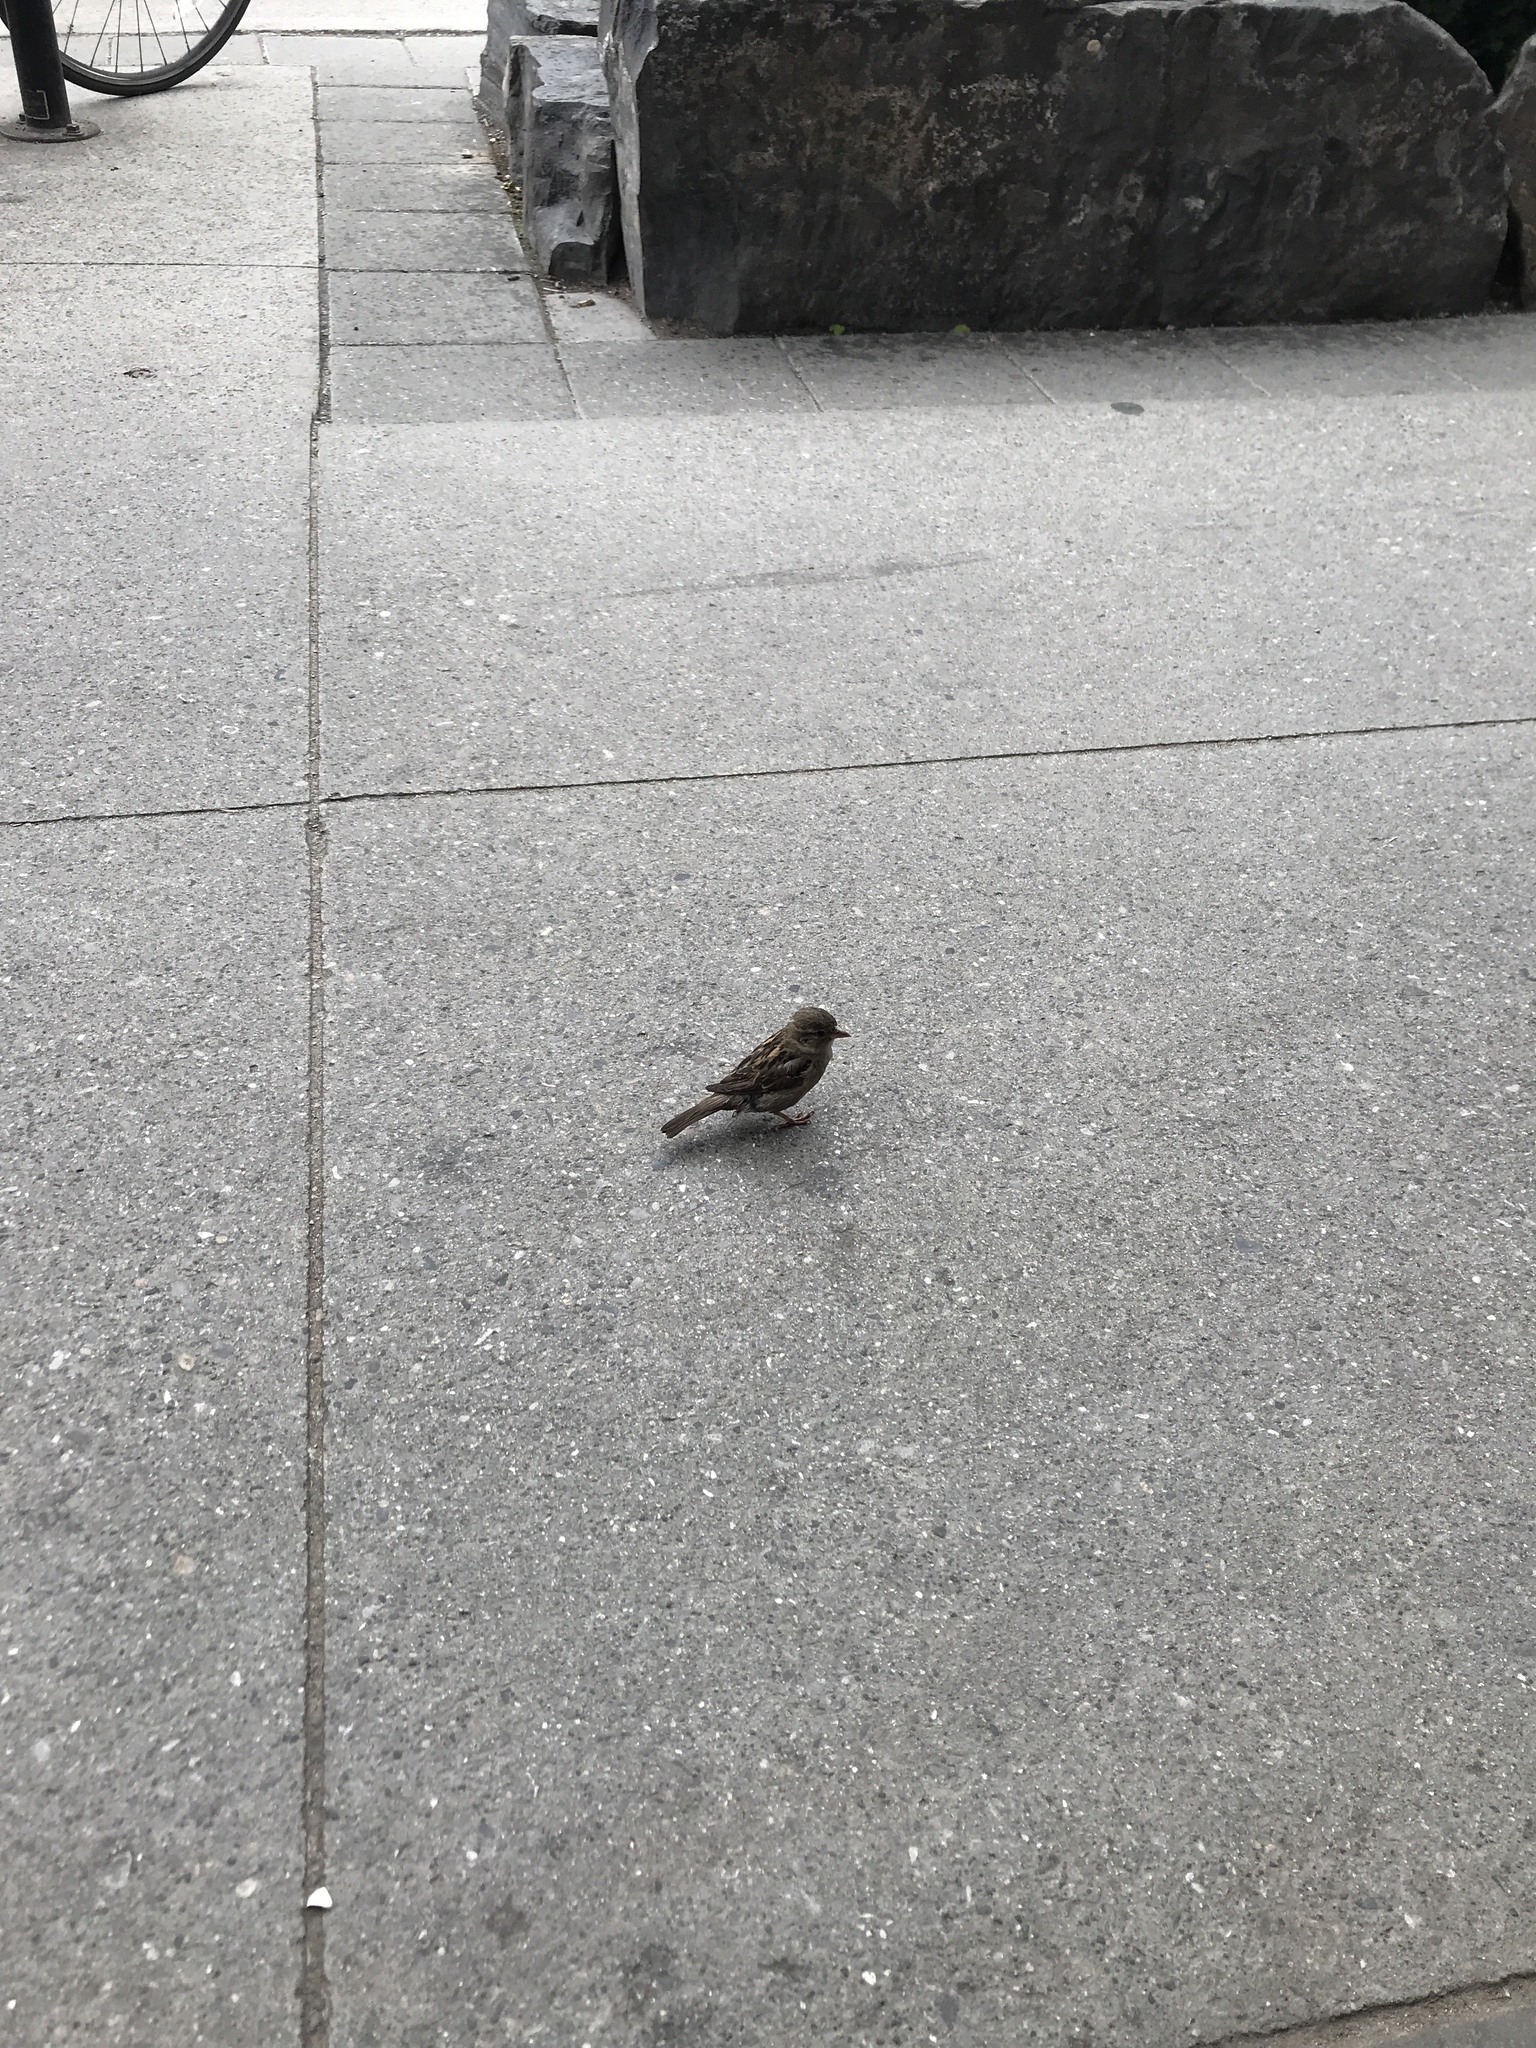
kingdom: Animalia
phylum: Chordata
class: Aves
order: Passeriformes
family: Passeridae
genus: Passer
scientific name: Passer domesticus
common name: House sparrow
